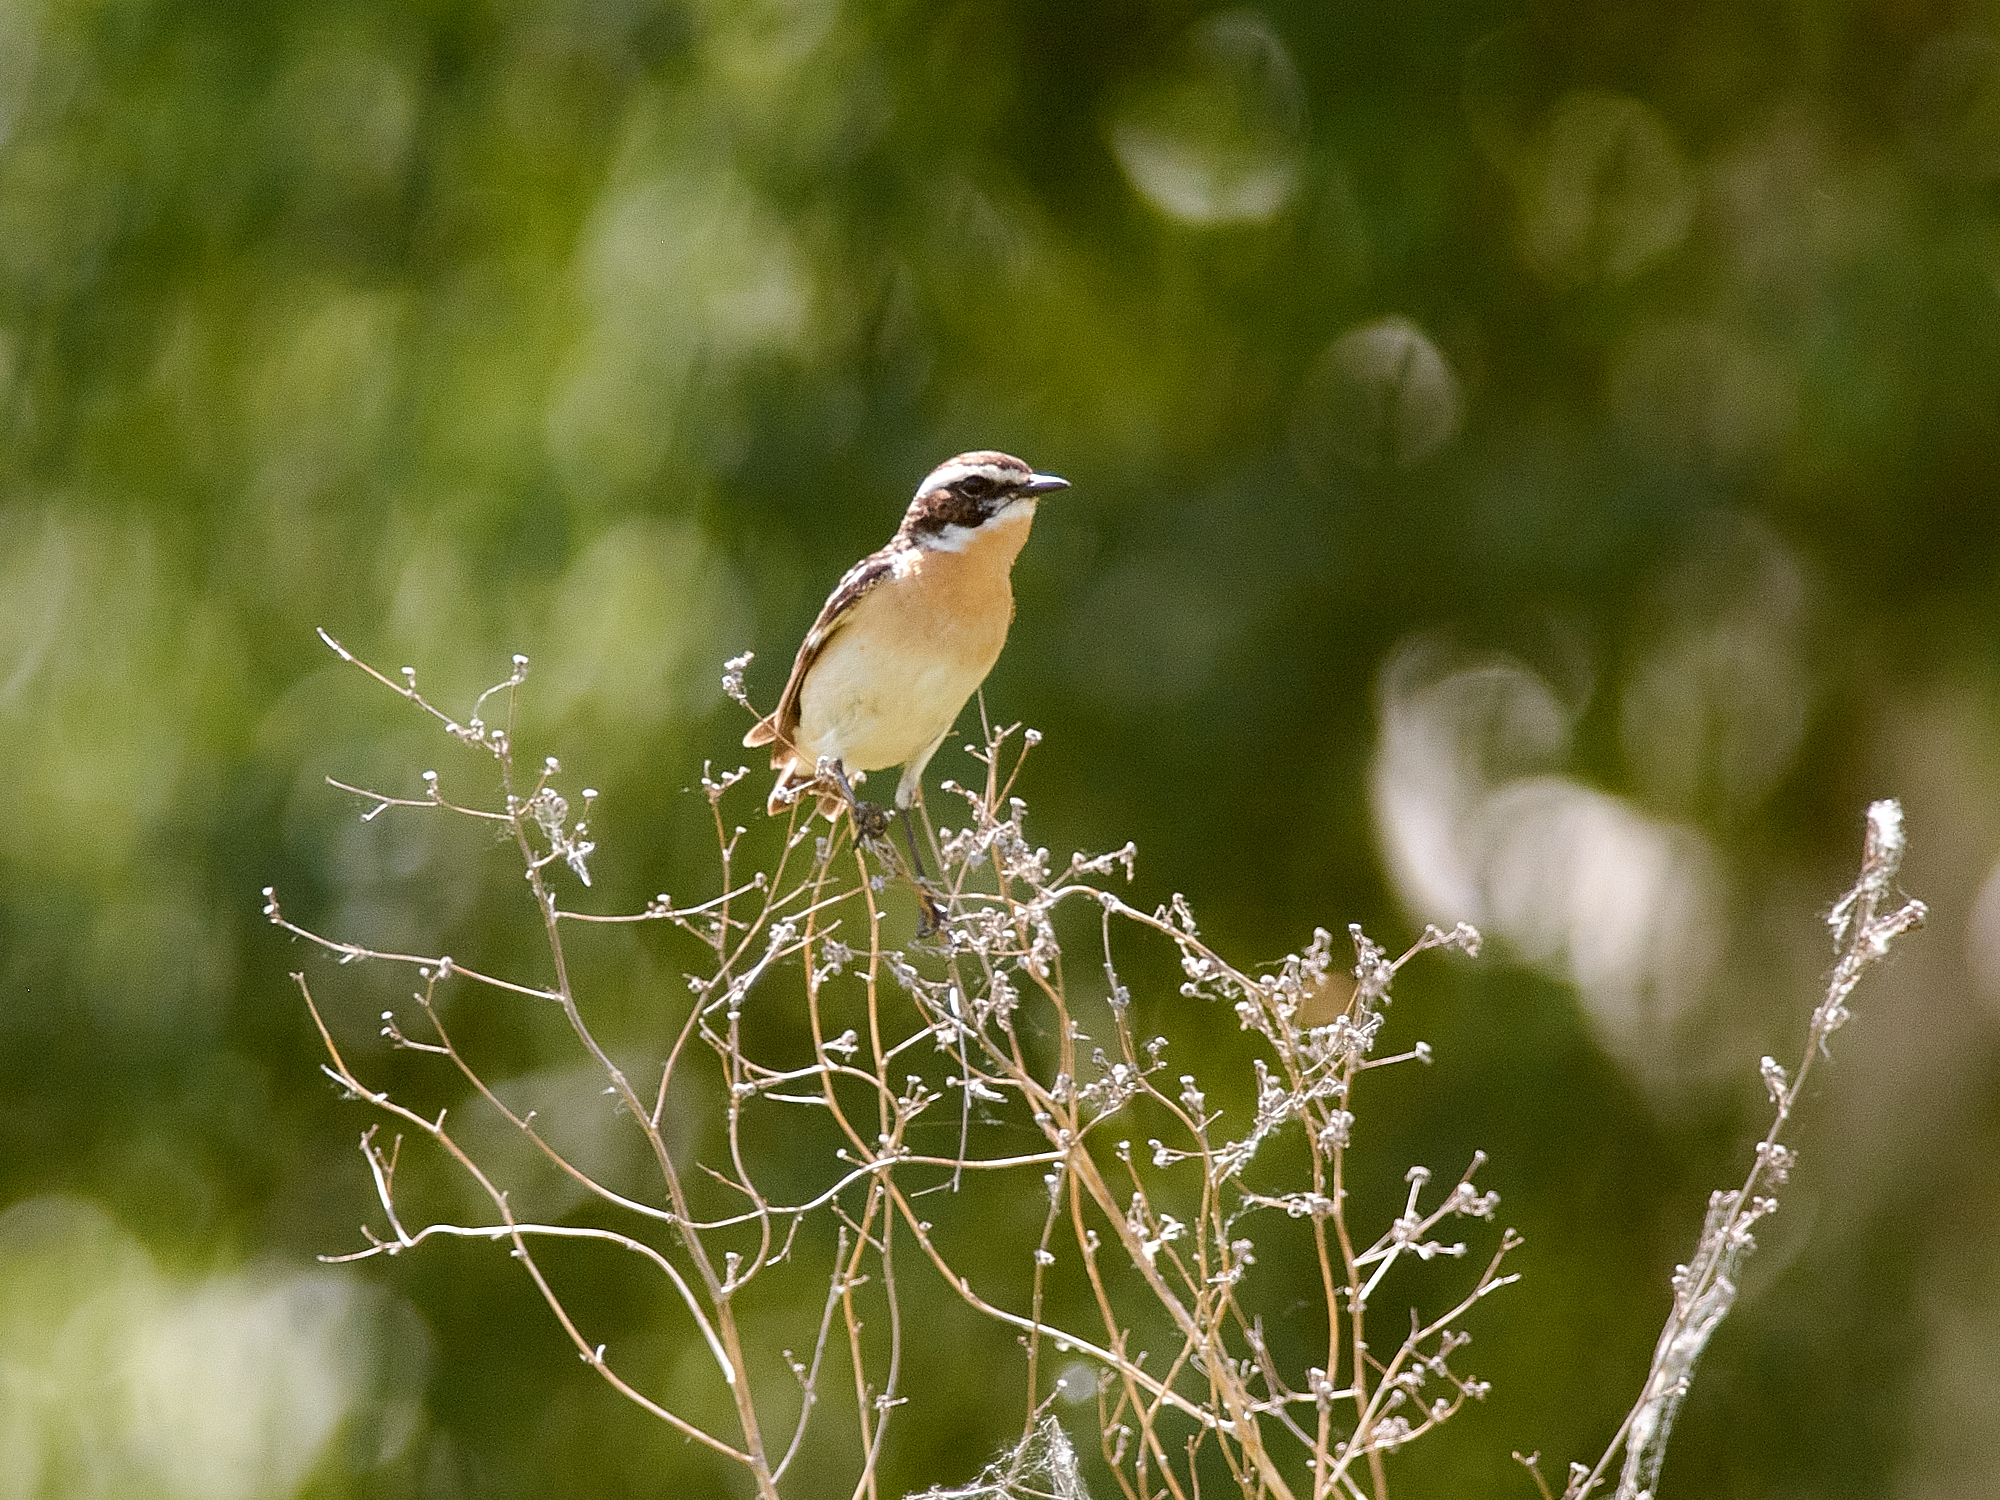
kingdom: Animalia
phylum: Chordata
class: Aves
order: Passeriformes
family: Muscicapidae
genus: Saxicola
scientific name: Saxicola rubetra
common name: Whinchat
